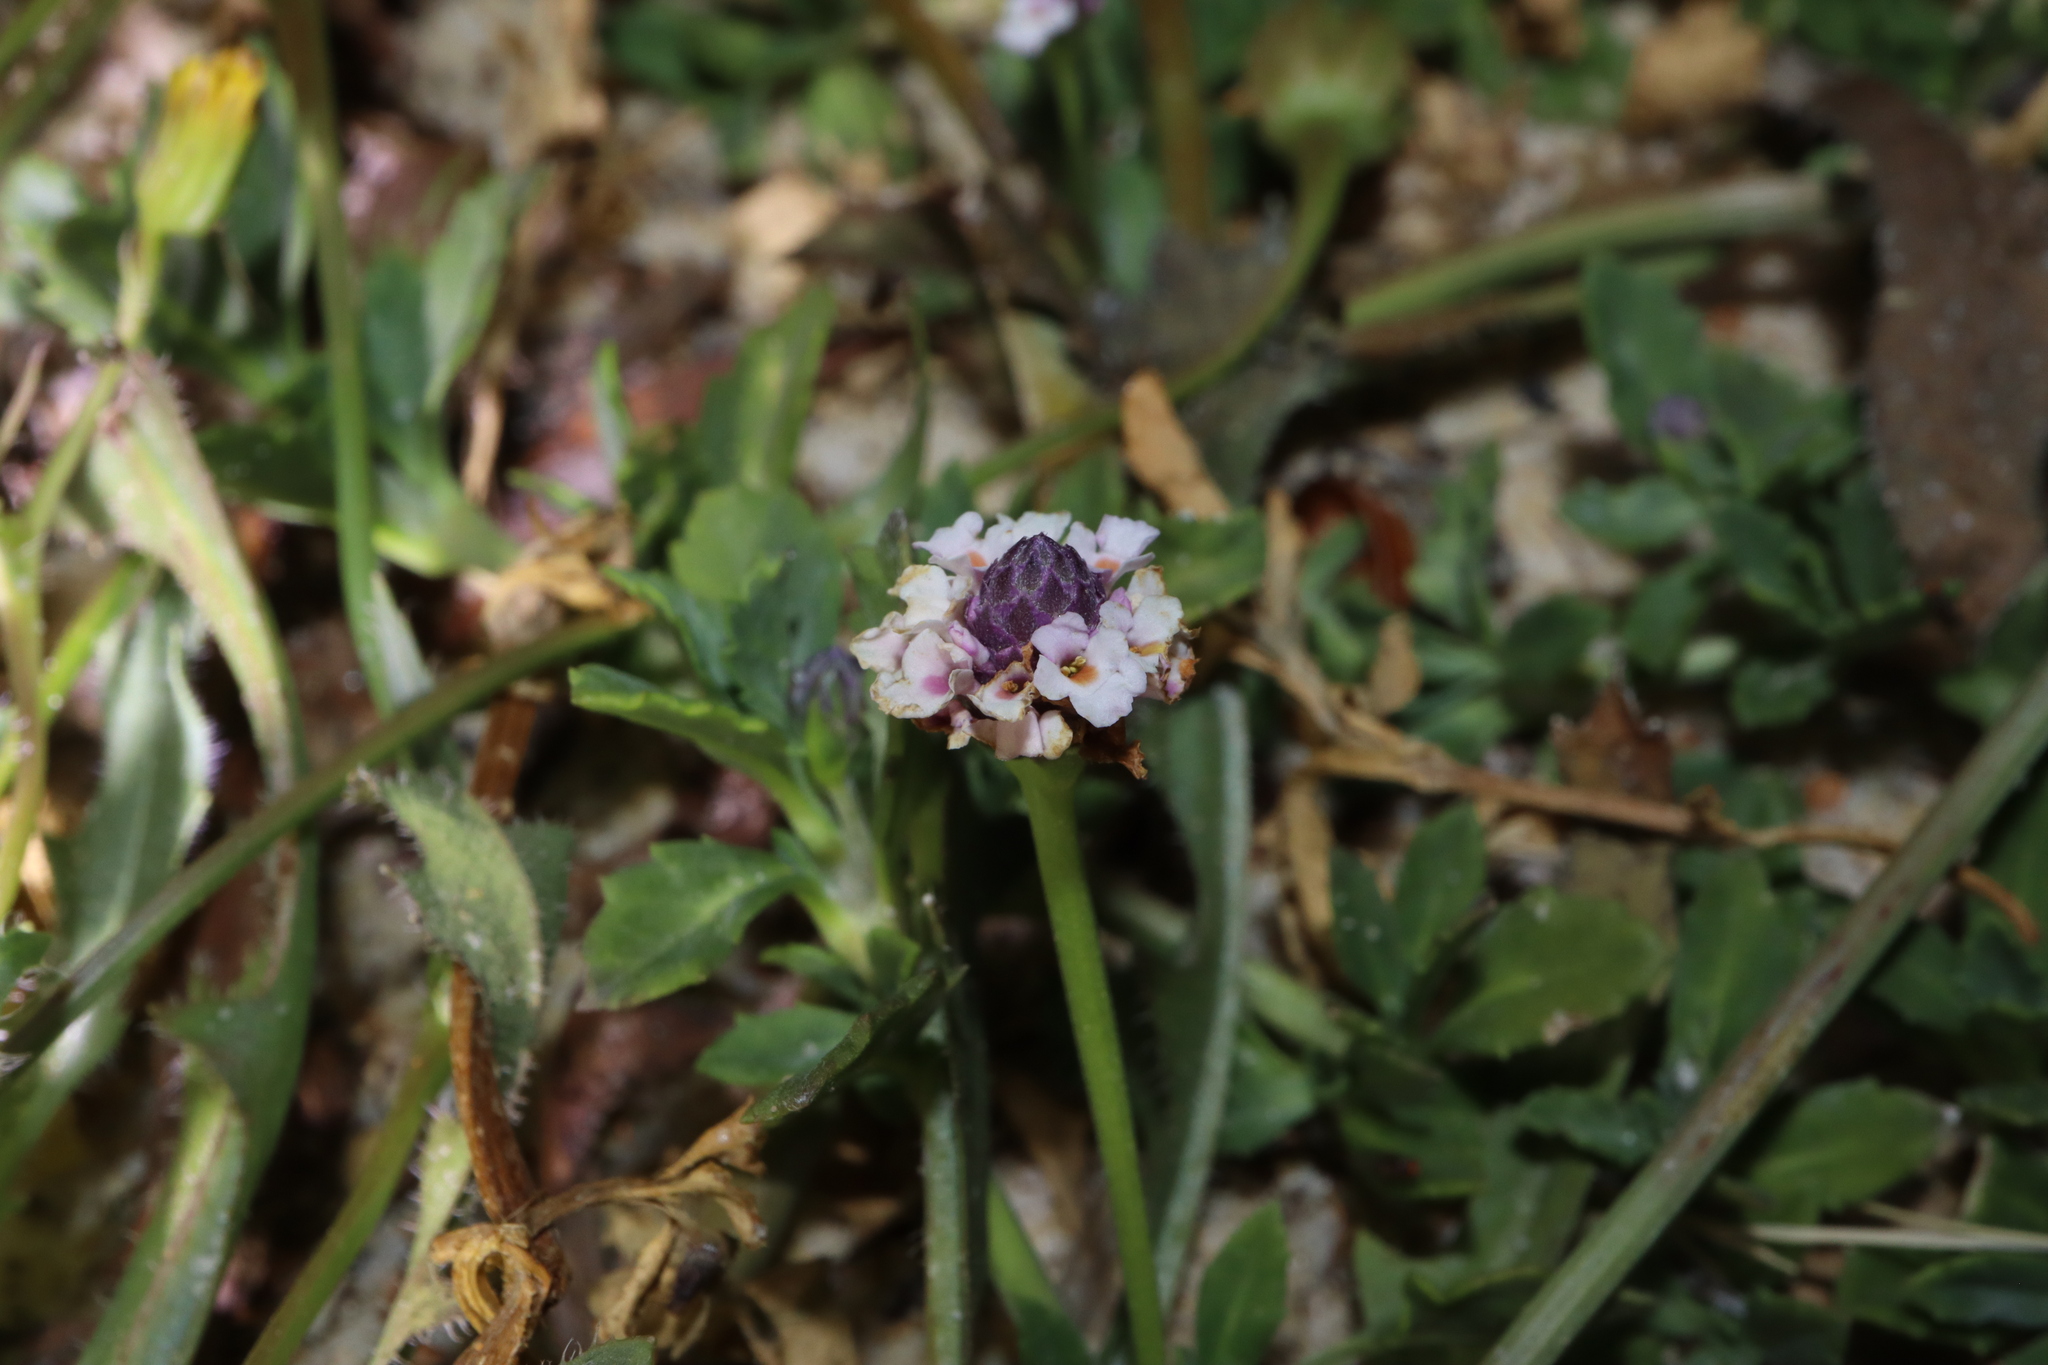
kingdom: Plantae
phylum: Tracheophyta
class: Magnoliopsida
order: Lamiales
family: Verbenaceae
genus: Phyla
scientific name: Phyla nodiflora
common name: Frogfruit
